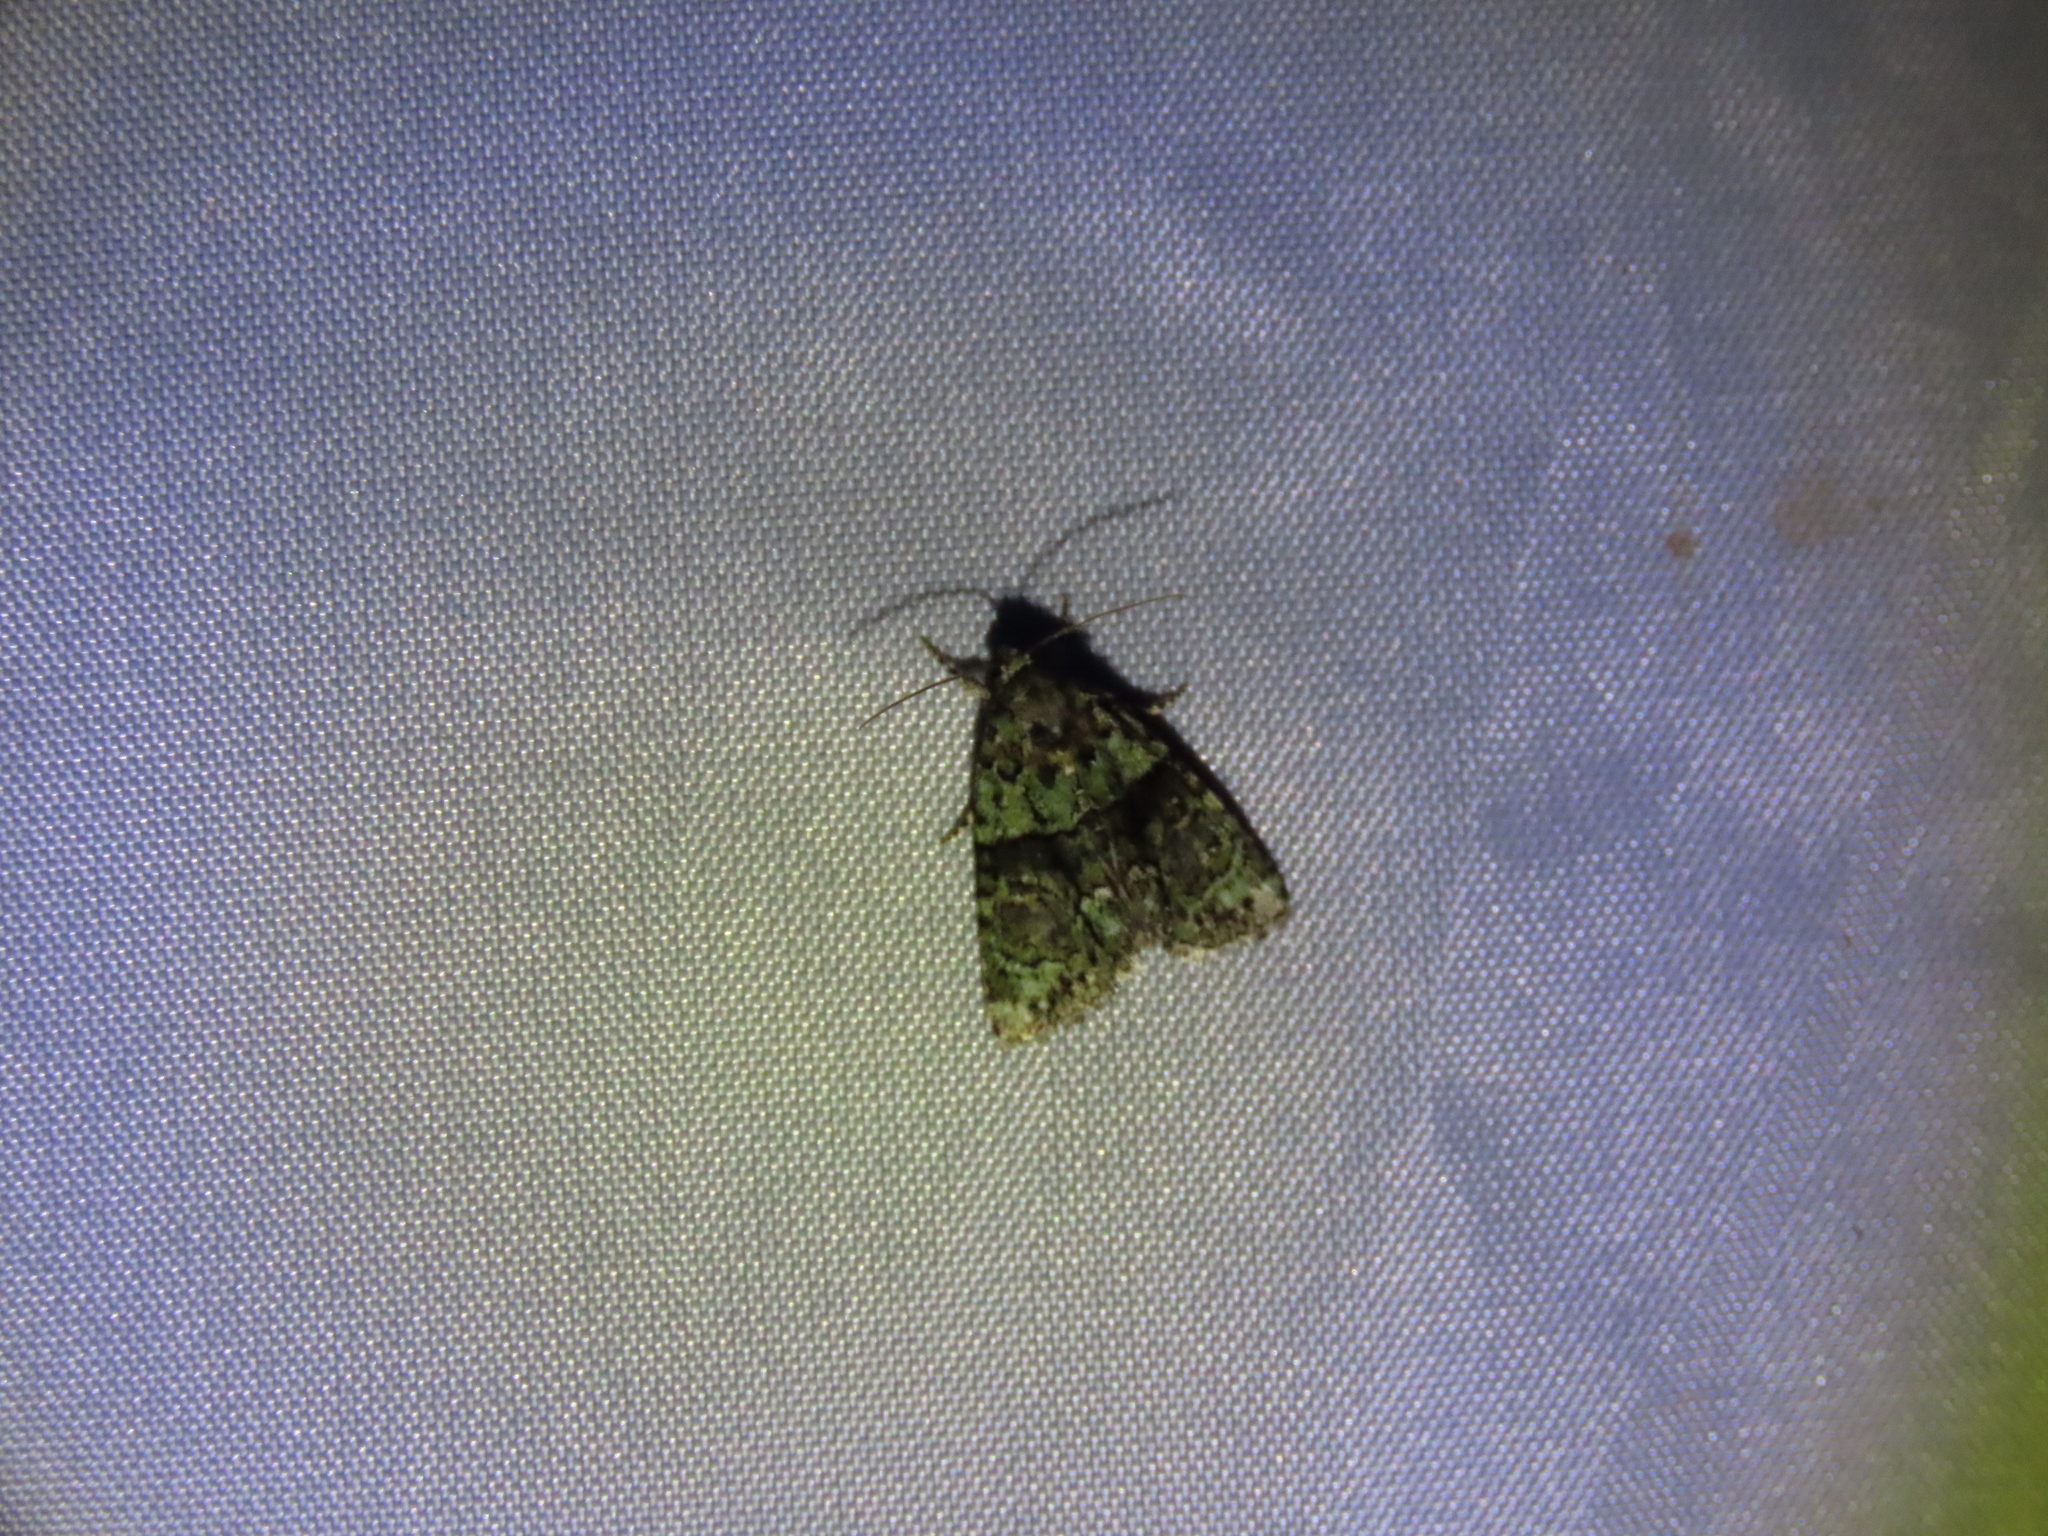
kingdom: Animalia
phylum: Arthropoda
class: Insecta
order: Lepidoptera
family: Noctuidae
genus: Cryphia
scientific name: Cryphia algae
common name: Tree-lichen beauty
